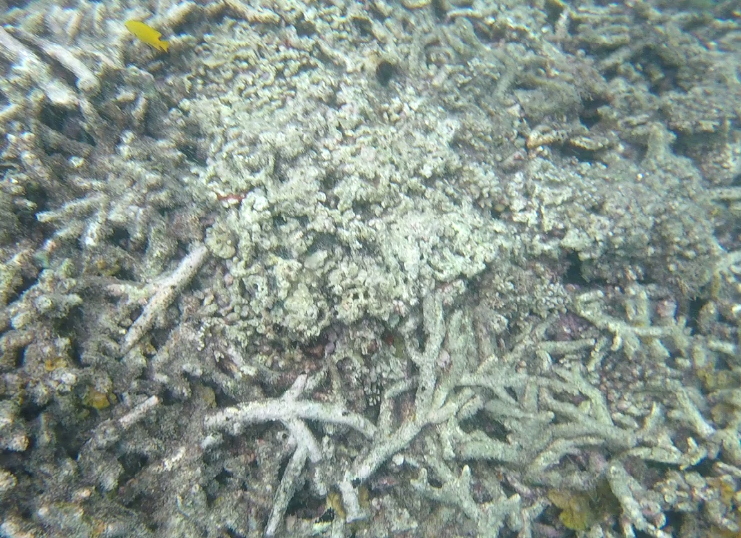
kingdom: Animalia
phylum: Chordata
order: Perciformes
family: Pomacentridae
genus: Pomacentrus
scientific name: Pomacentrus sulfureus
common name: Sulfur damsel
